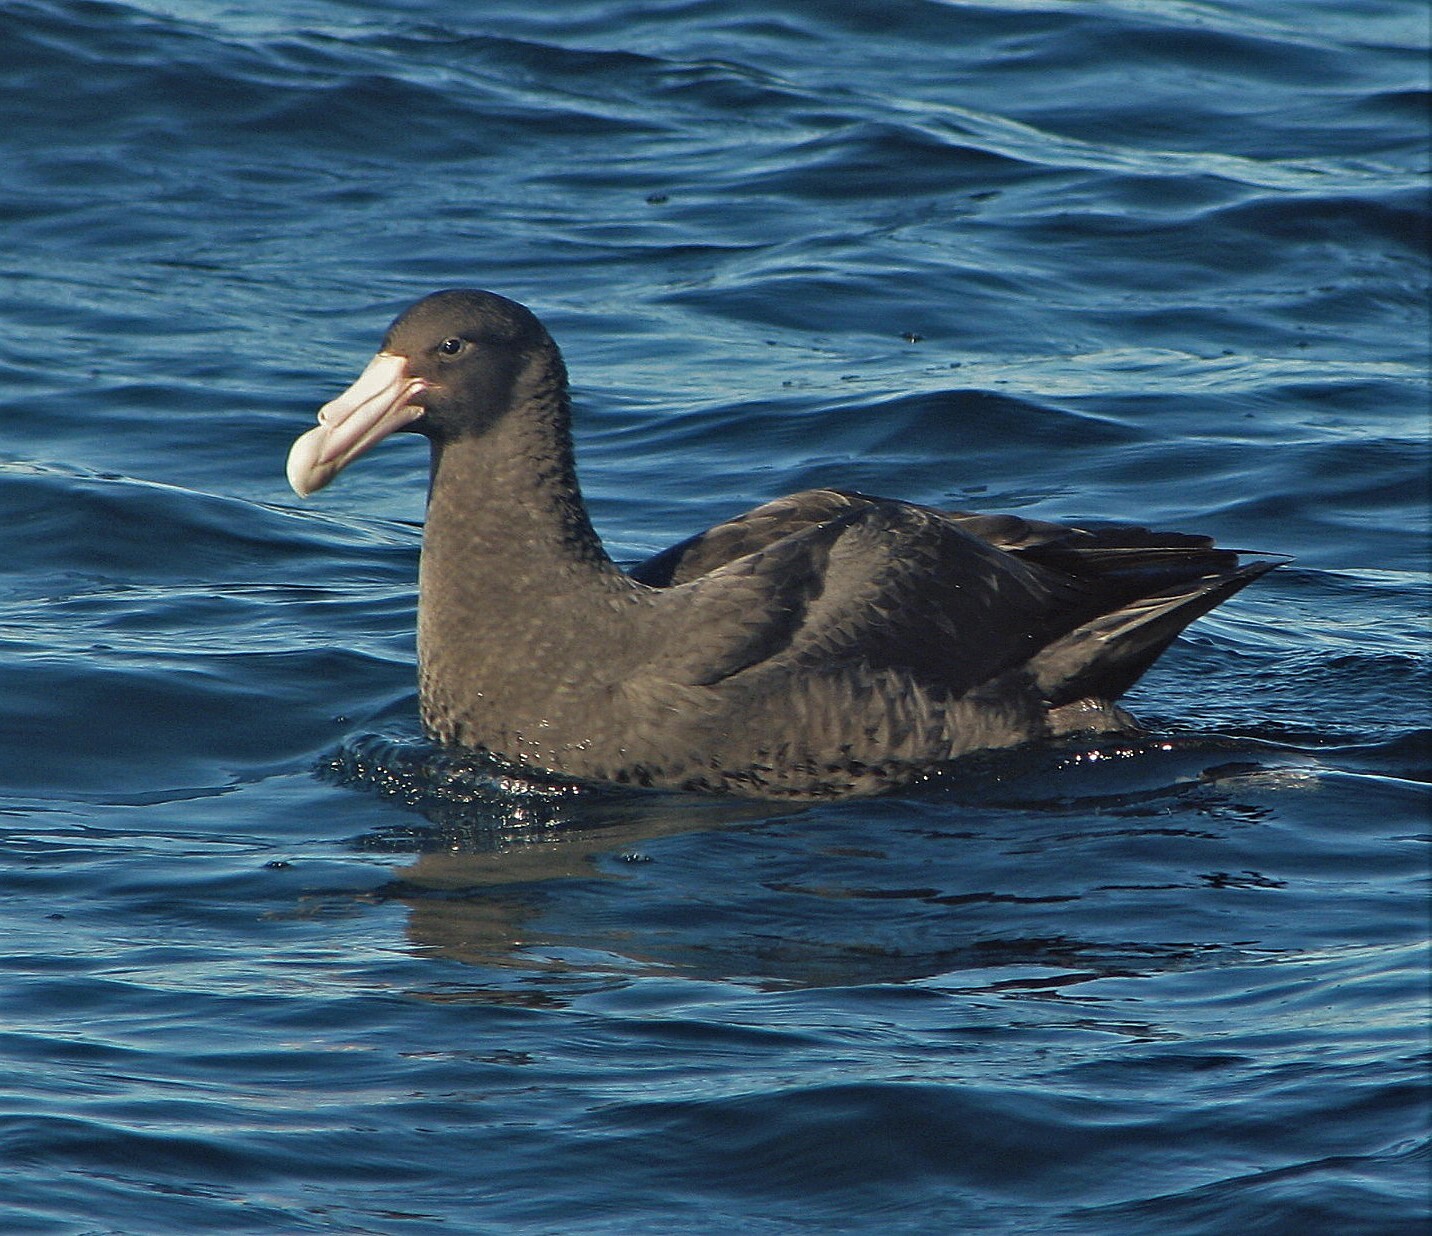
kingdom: Animalia
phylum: Chordata
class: Aves
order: Procellariiformes
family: Procellariidae
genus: Macronectes
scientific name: Macronectes giganteus
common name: Southern giant petrel
